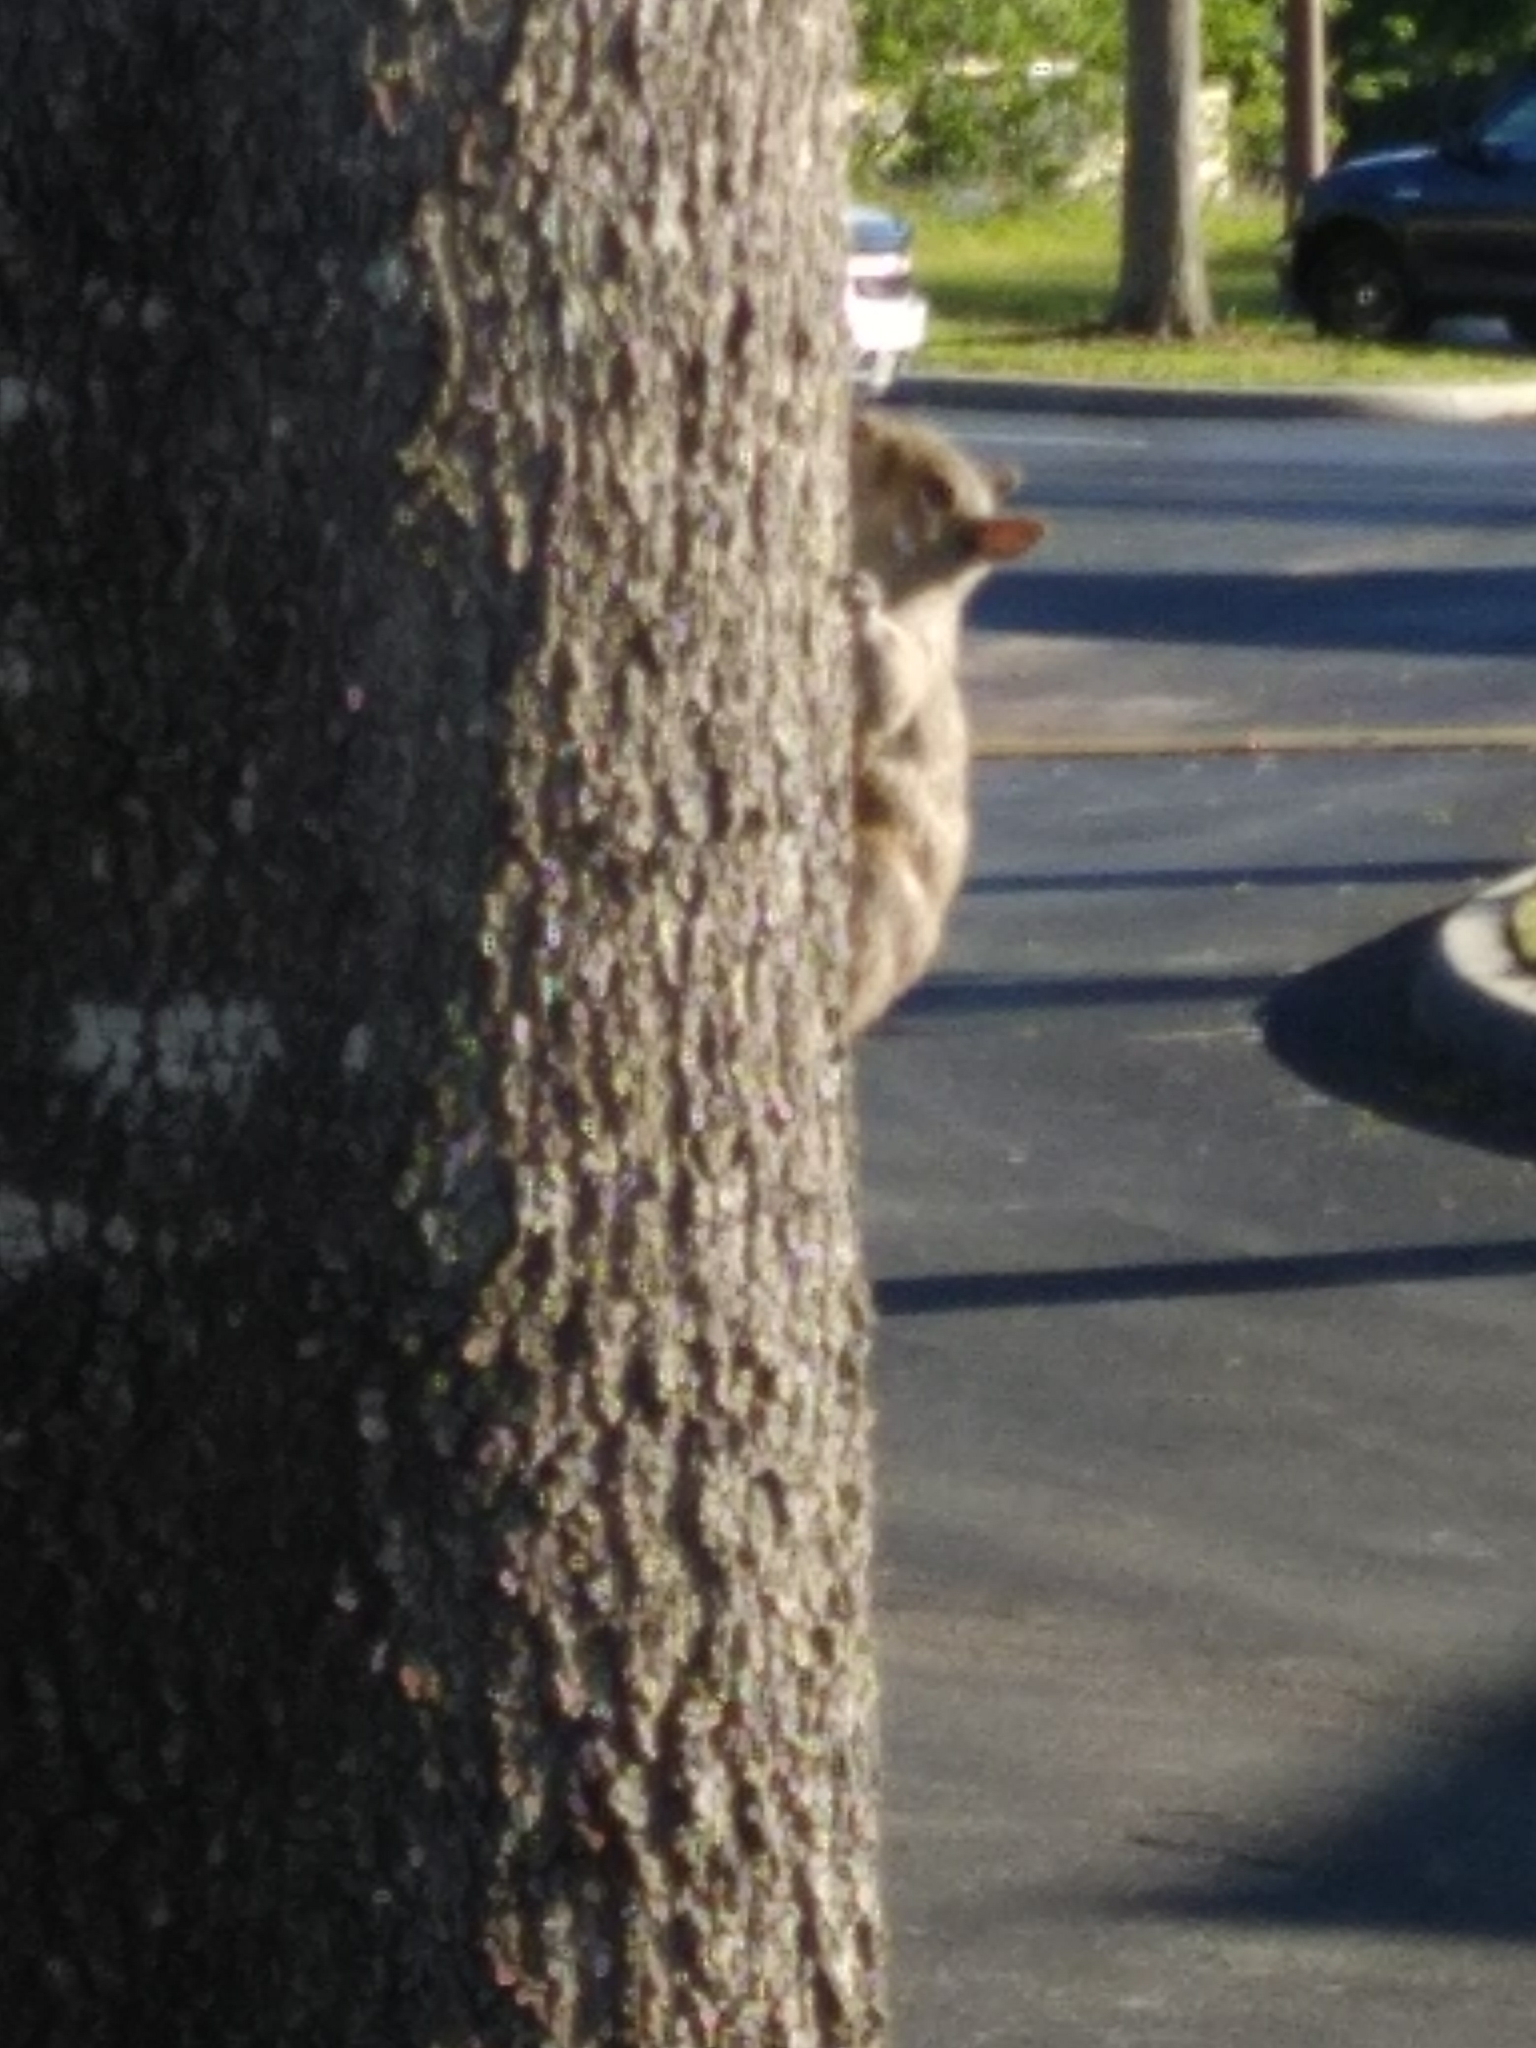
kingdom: Animalia
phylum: Chordata
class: Mammalia
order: Rodentia
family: Sciuridae
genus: Sciurus
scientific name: Sciurus carolinensis
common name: Eastern gray squirrel
